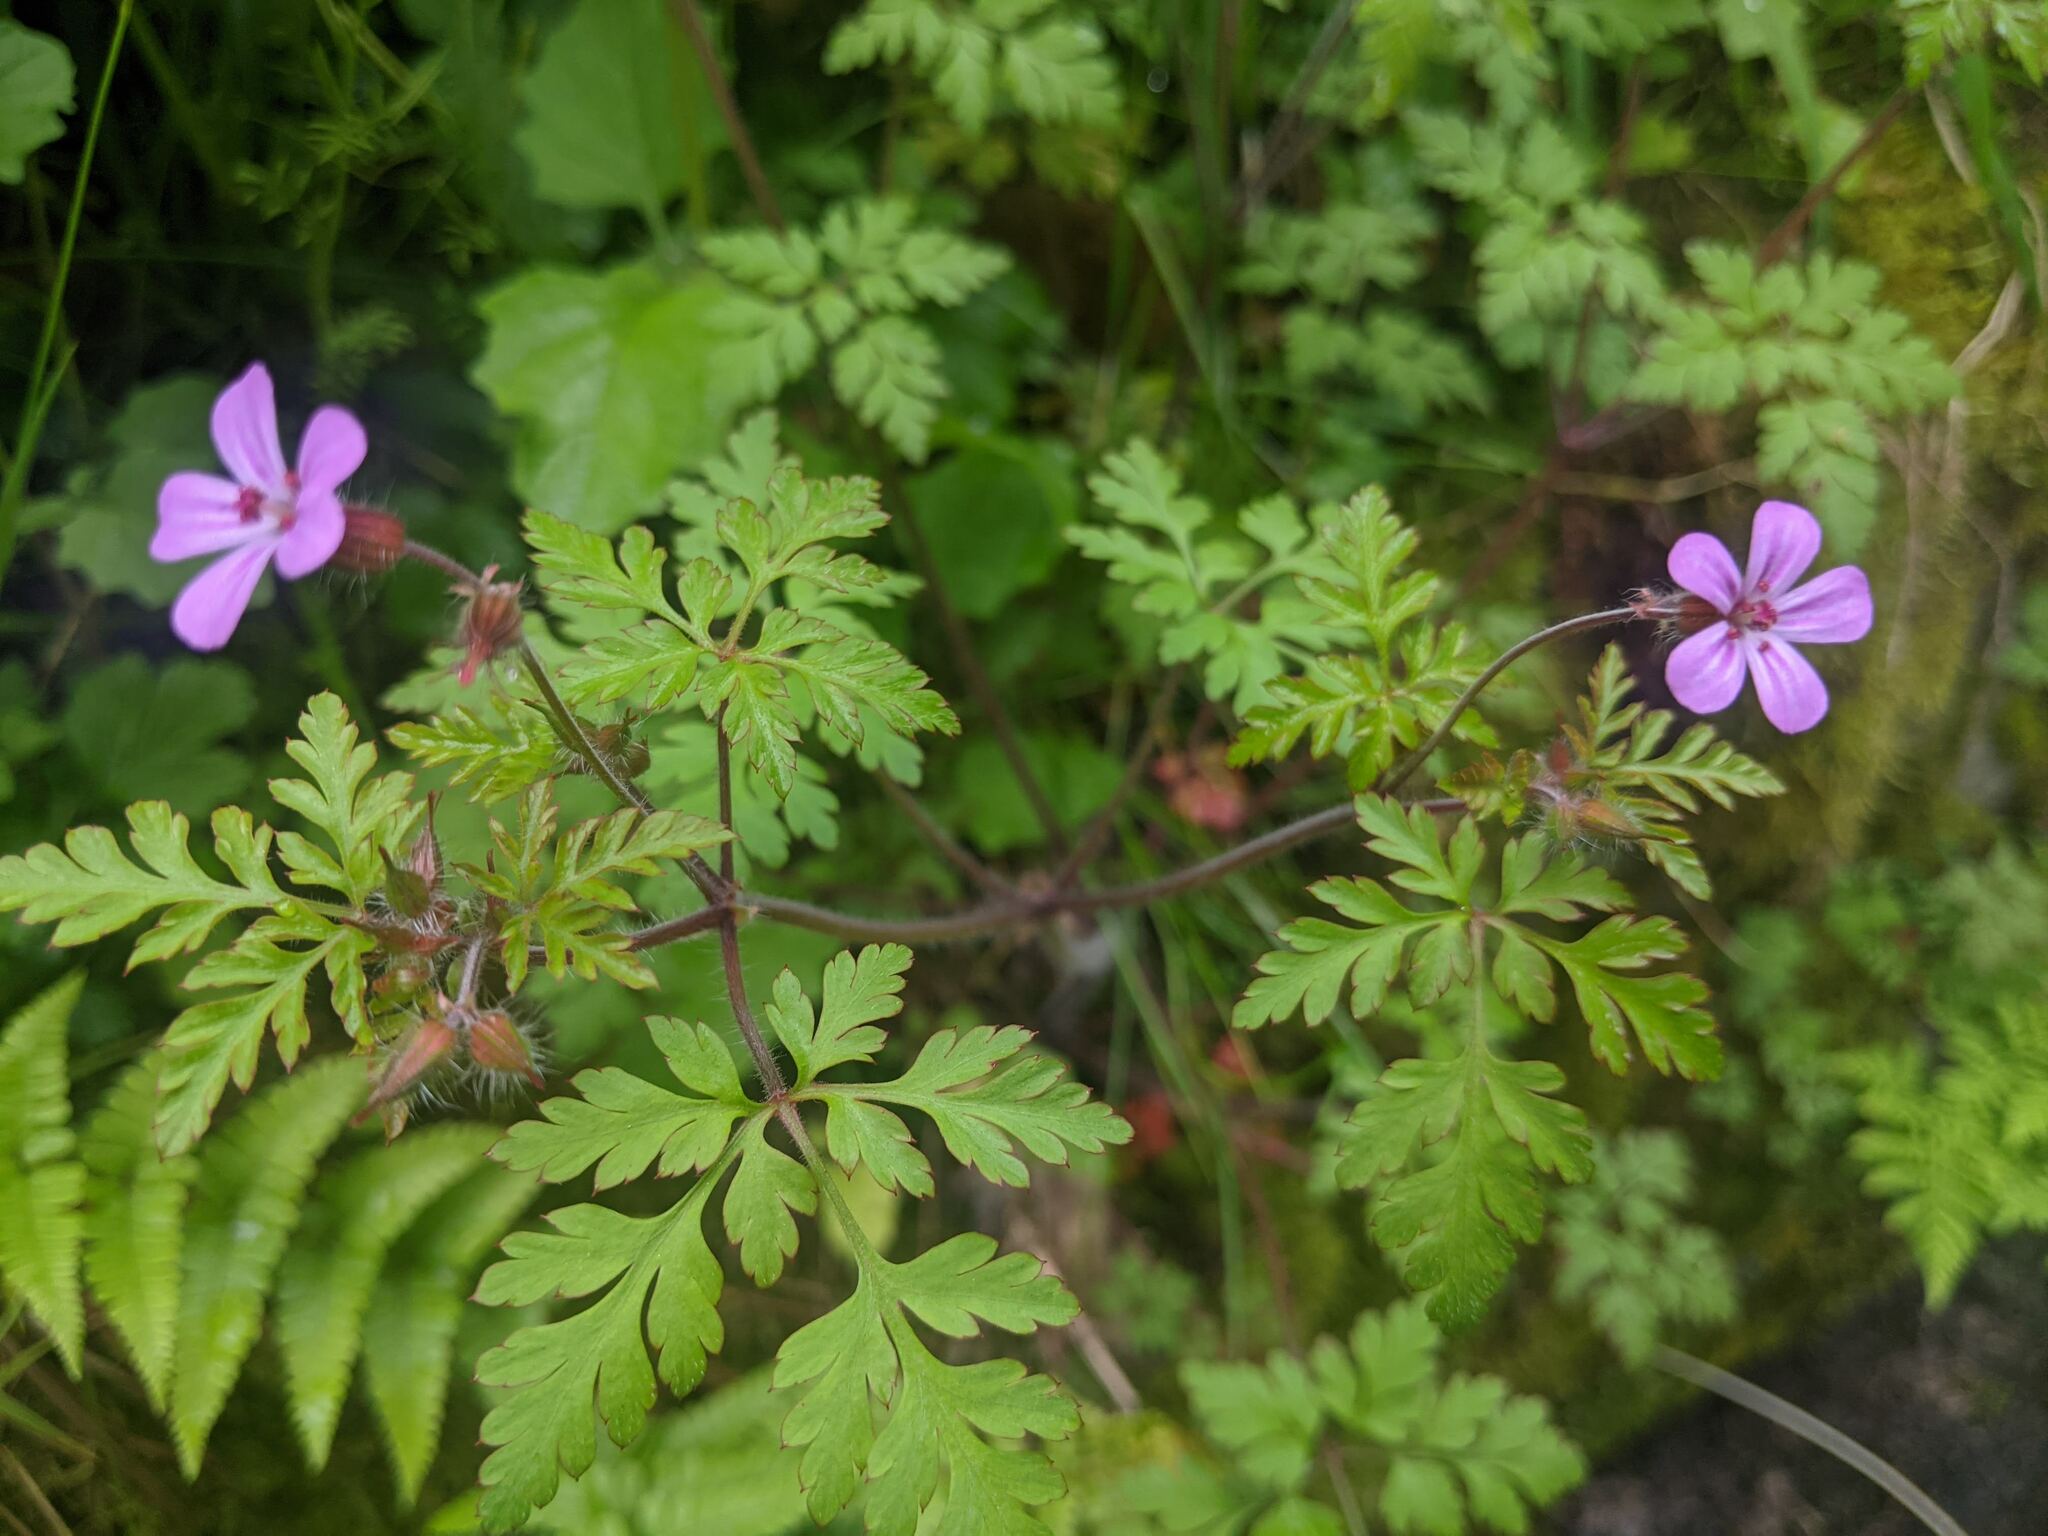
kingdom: Plantae
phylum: Tracheophyta
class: Magnoliopsida
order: Geraniales
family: Geraniaceae
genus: Geranium
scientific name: Geranium robertianum
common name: Herb-robert
